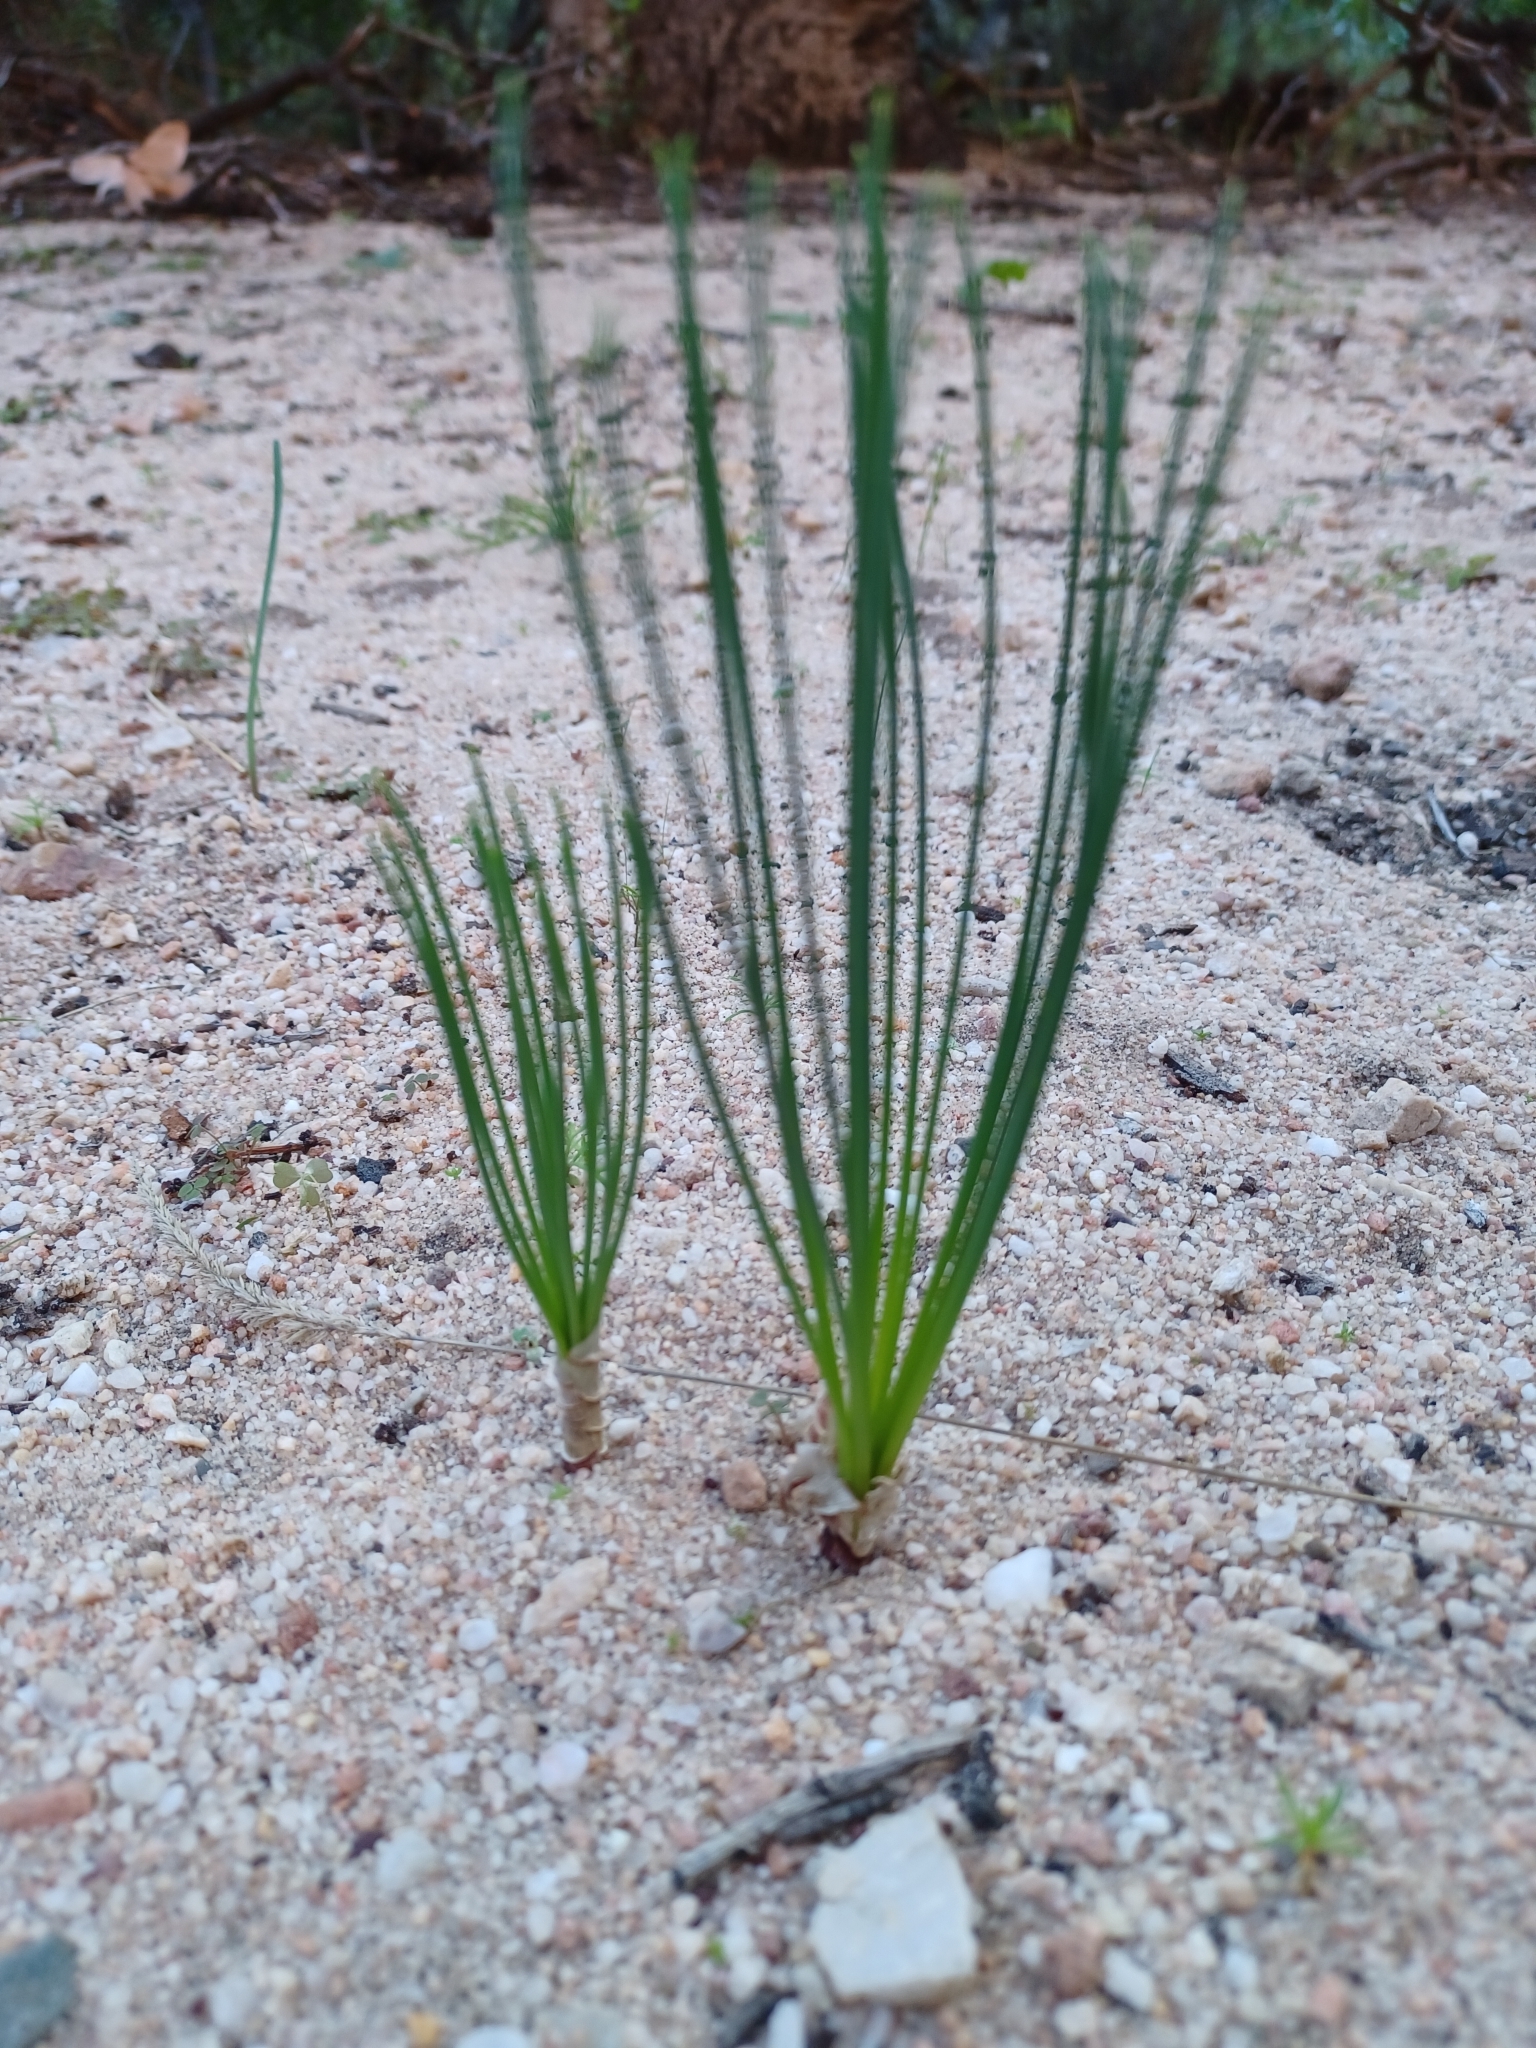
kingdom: Plantae
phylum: Tracheophyta
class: Liliopsida
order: Asparagales
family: Asparagaceae
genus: Drimia
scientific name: Drimia exuviata
